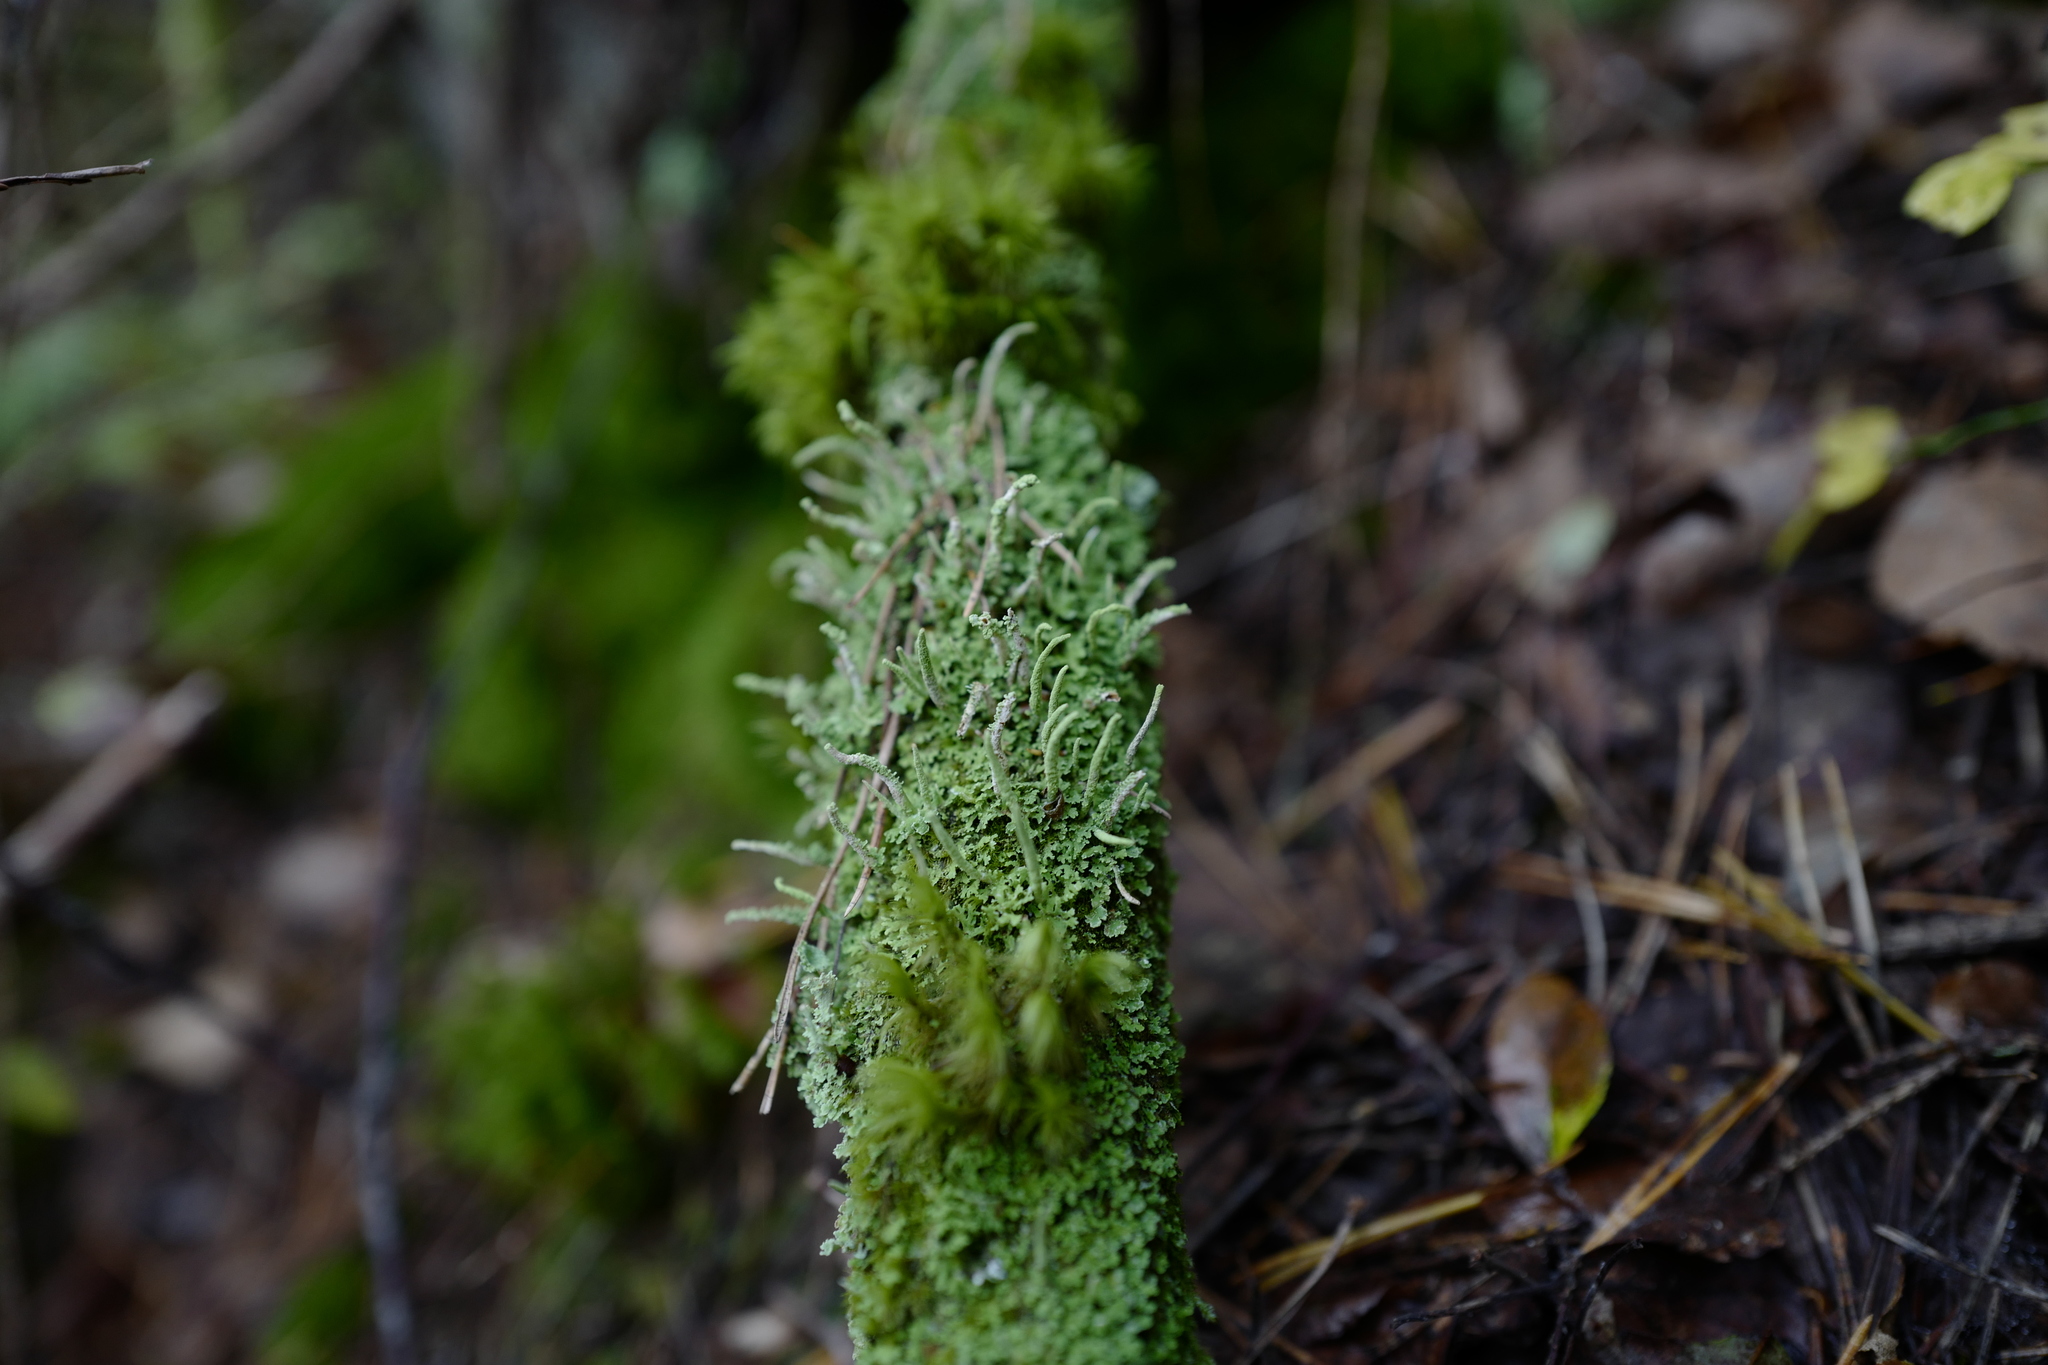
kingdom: Fungi
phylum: Ascomycota
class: Lecanoromycetes
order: Lecanorales
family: Cladoniaceae
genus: Cladonia
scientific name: Cladonia coniocraea
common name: Common powderhorn
